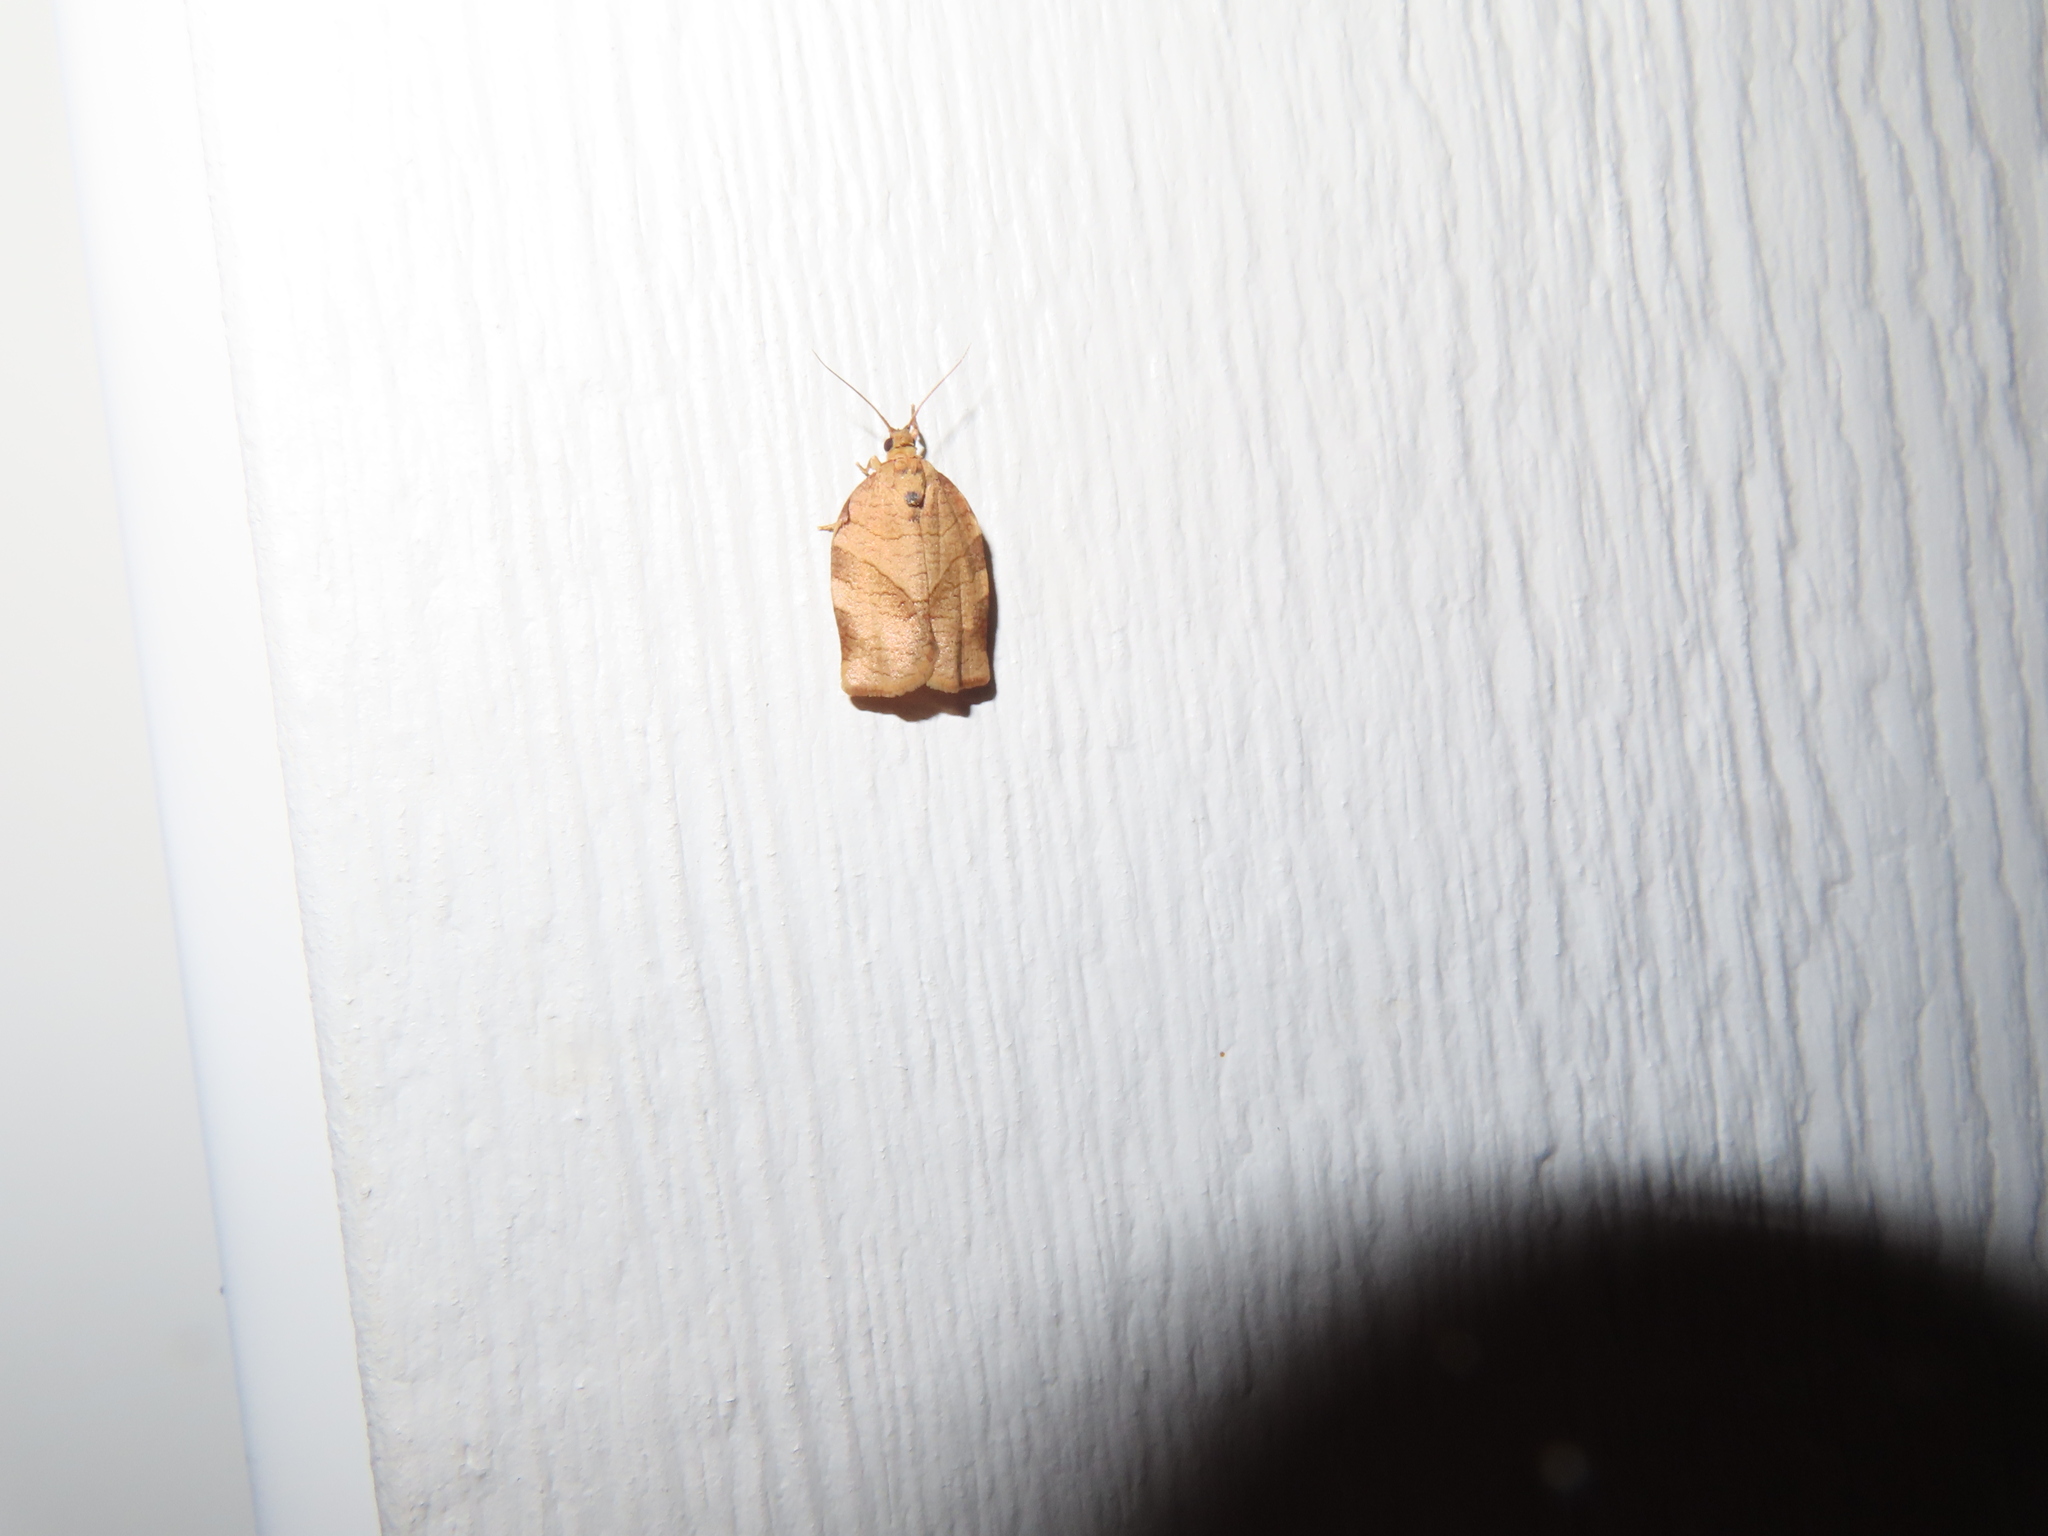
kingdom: Animalia
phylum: Arthropoda
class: Insecta
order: Lepidoptera
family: Tortricidae
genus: Choristoneura
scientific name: Choristoneura rosaceana
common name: Oblique-banded leafroller moth
